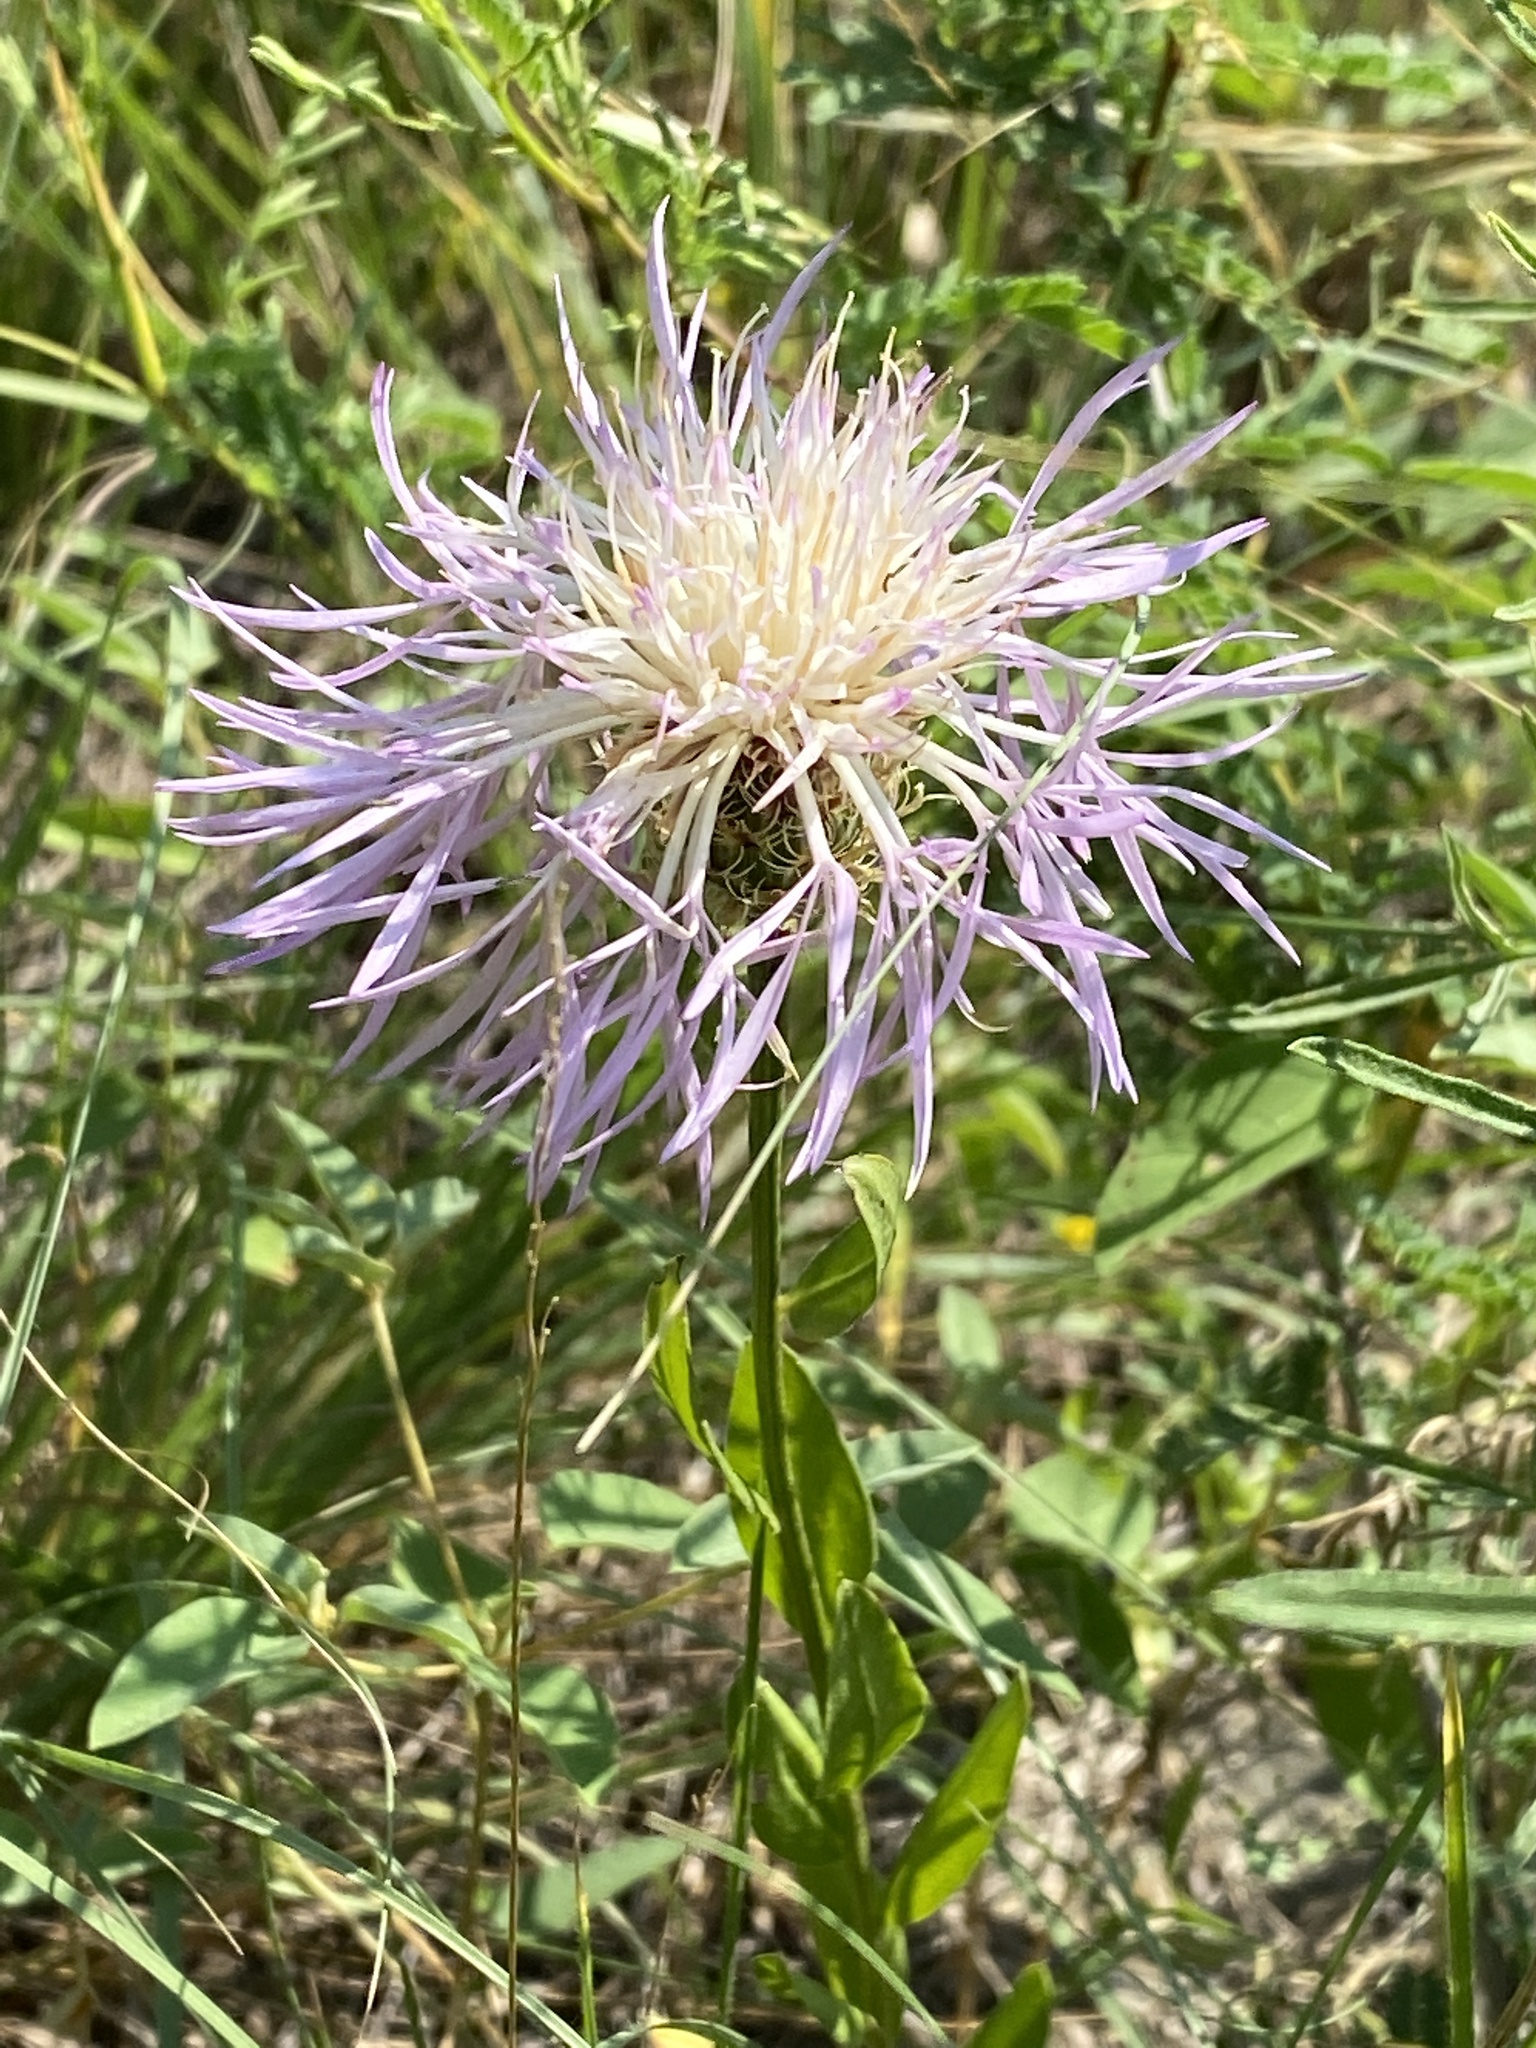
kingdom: Plantae
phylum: Tracheophyta
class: Magnoliopsida
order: Asterales
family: Asteraceae
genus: Plectocephalus
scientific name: Plectocephalus americanus
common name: American basket-flower
